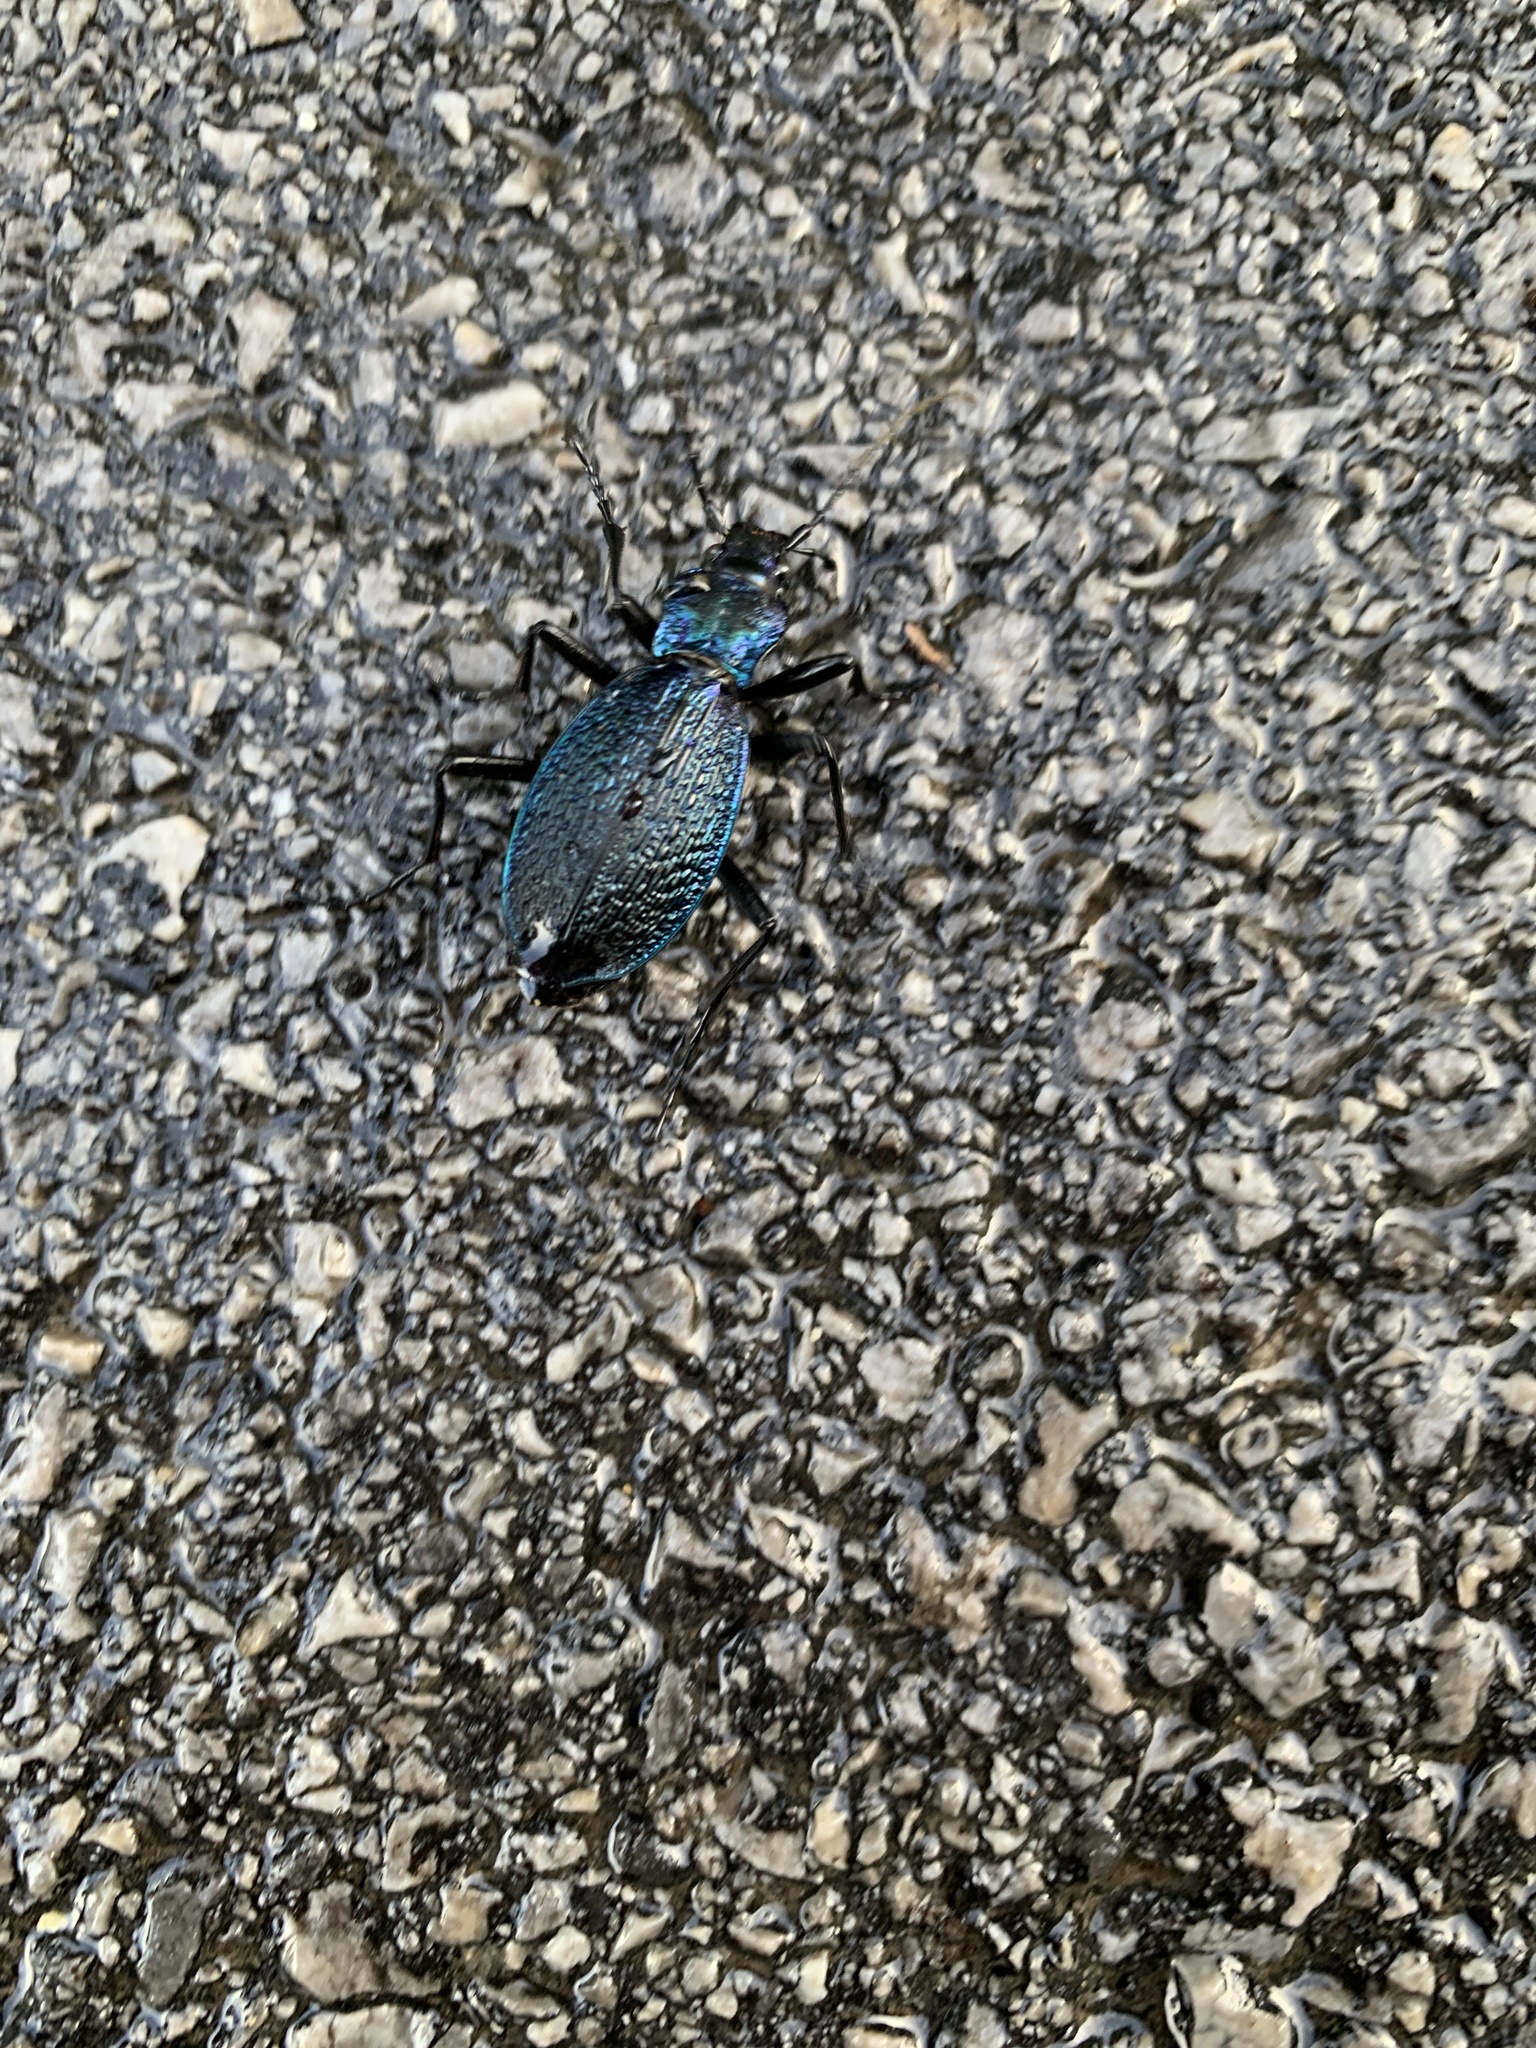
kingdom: Animalia
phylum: Arthropoda
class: Insecta
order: Coleoptera
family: Carabidae
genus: Carabus
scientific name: Carabus intricatus
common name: Blue ground beetle
